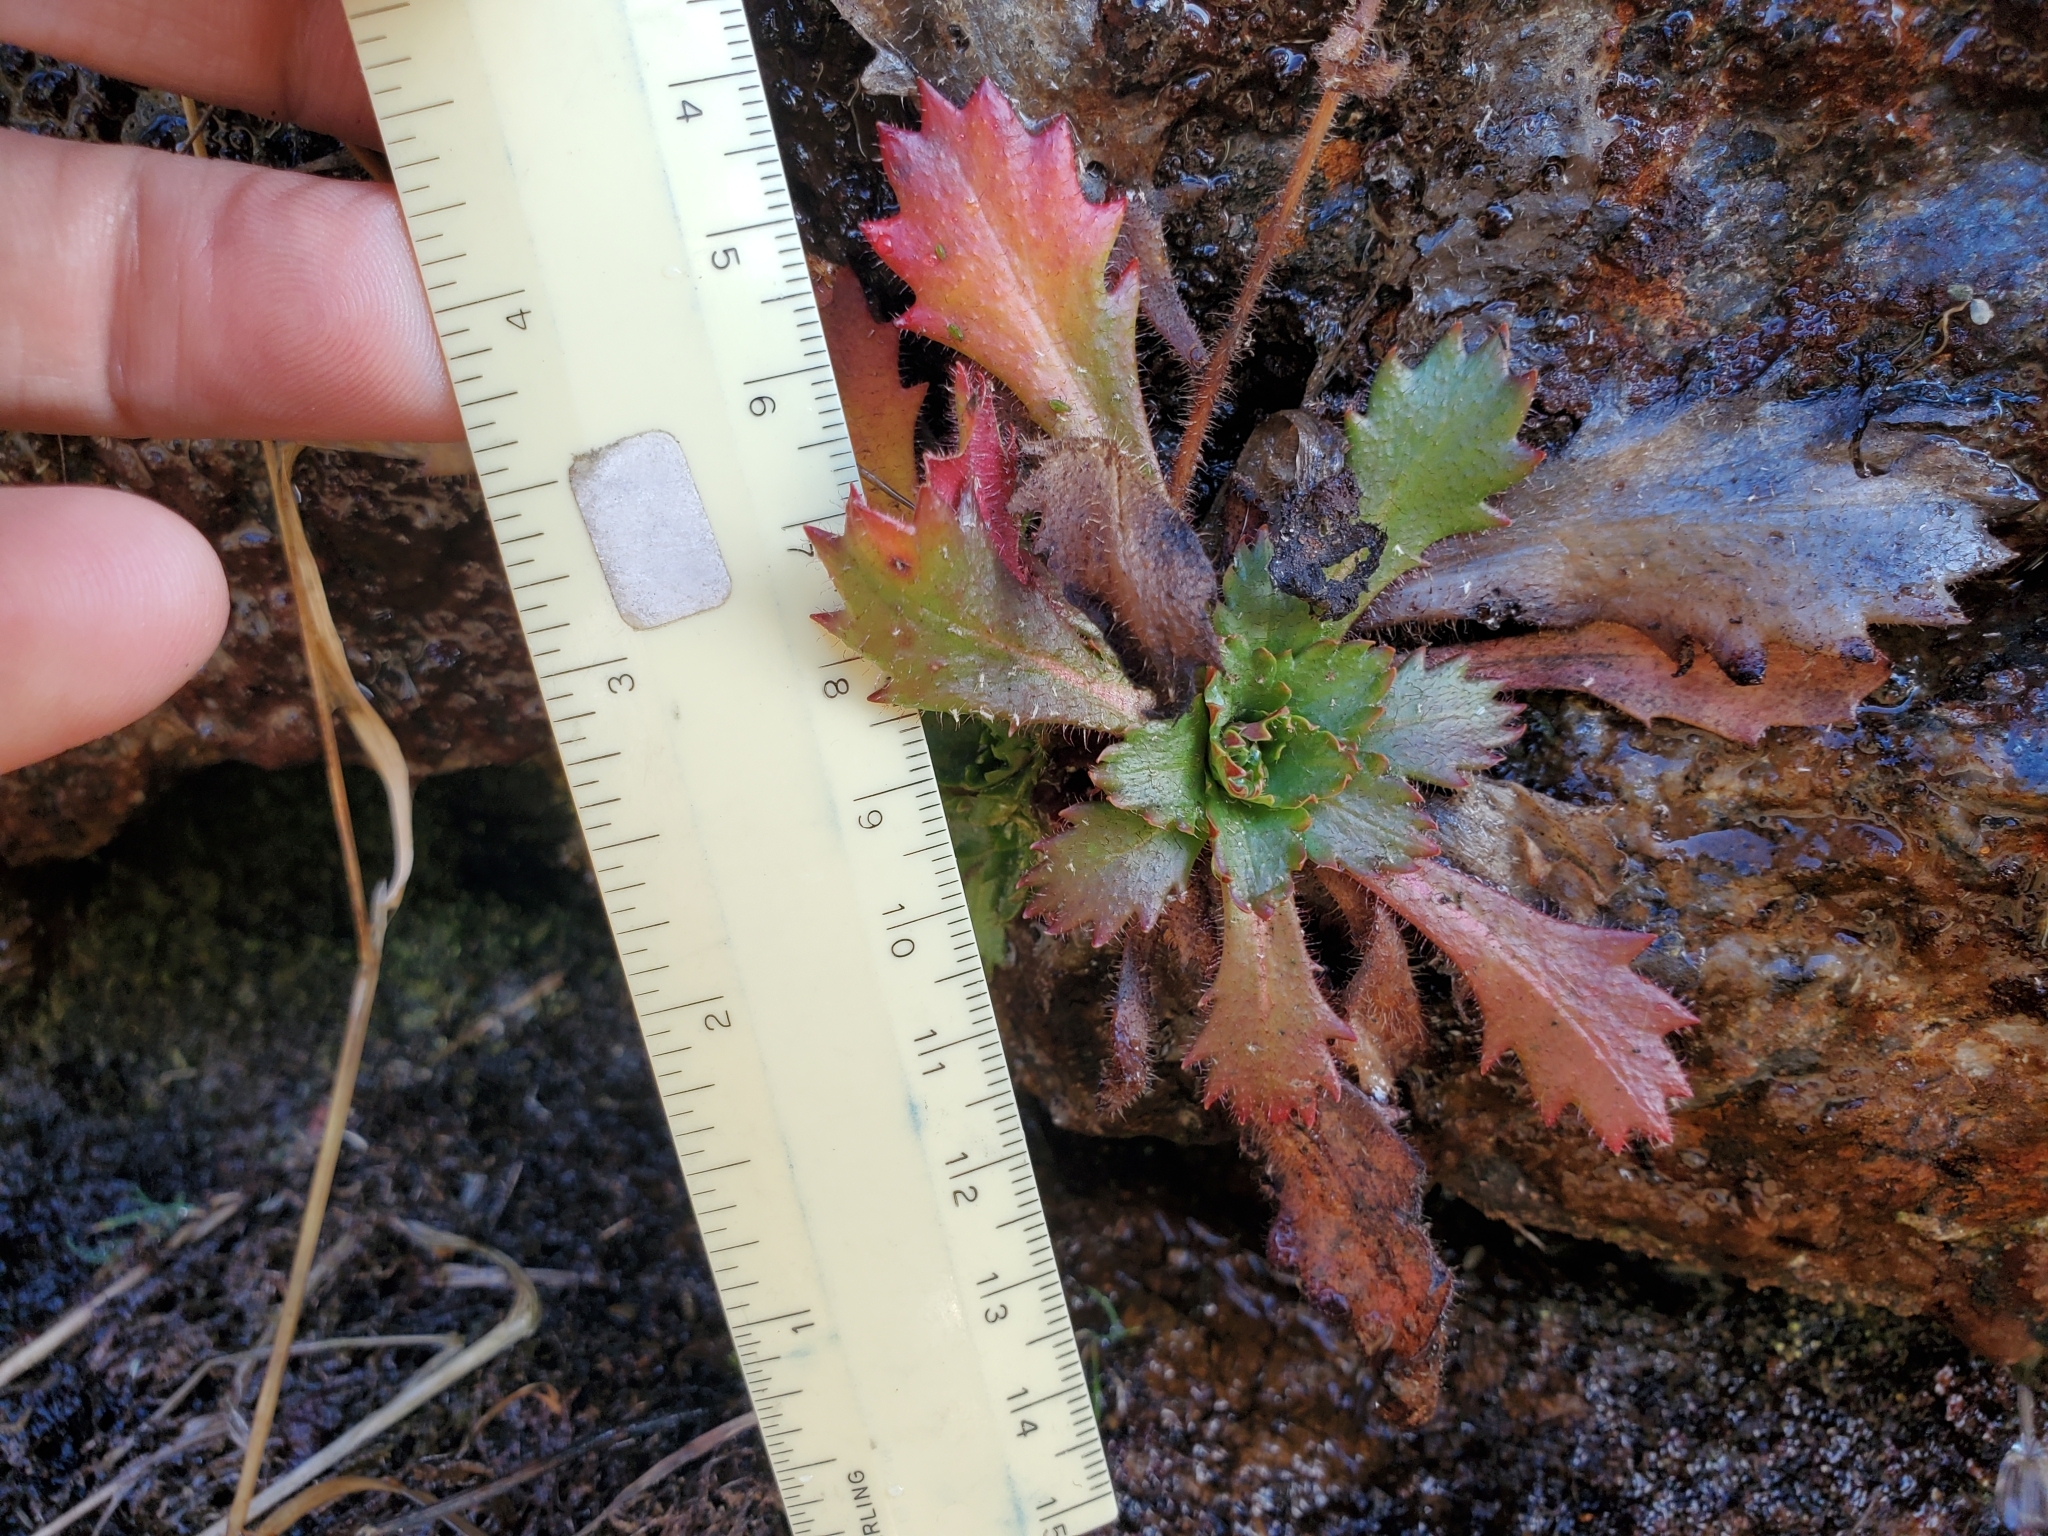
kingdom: Plantae
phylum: Tracheophyta
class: Magnoliopsida
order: Saxifragales
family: Saxifragaceae
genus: Micranthes
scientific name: Micranthes petiolaris
